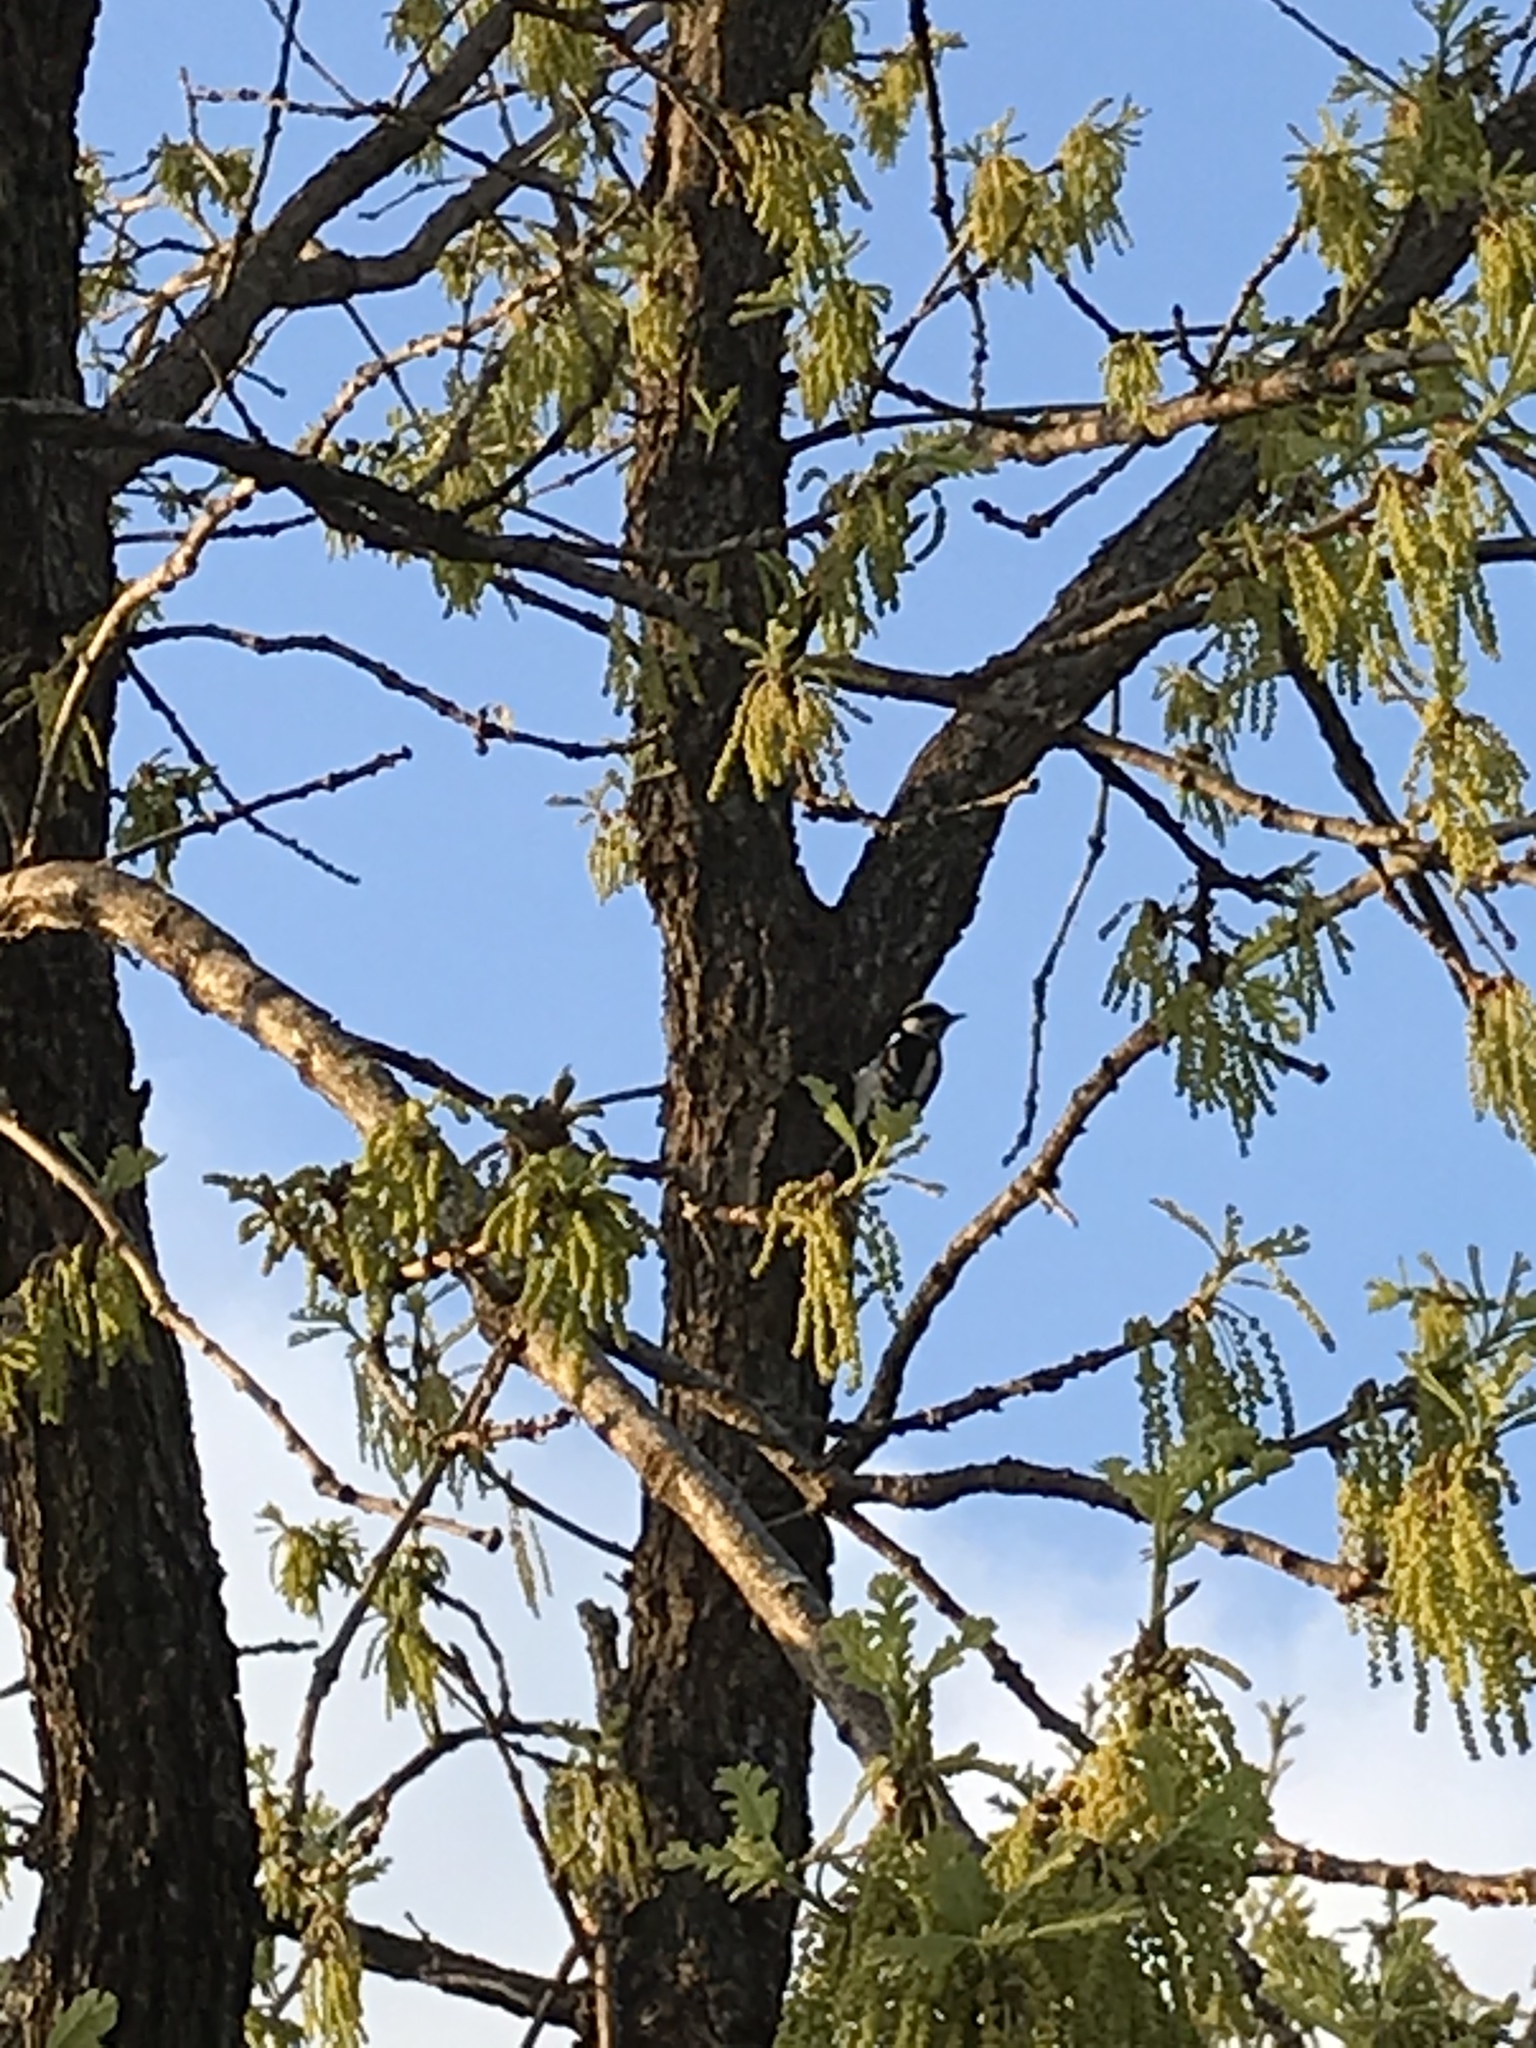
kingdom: Animalia
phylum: Chordata
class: Aves
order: Piciformes
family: Picidae
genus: Dryobates
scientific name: Dryobates pubescens
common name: Downy woodpecker
